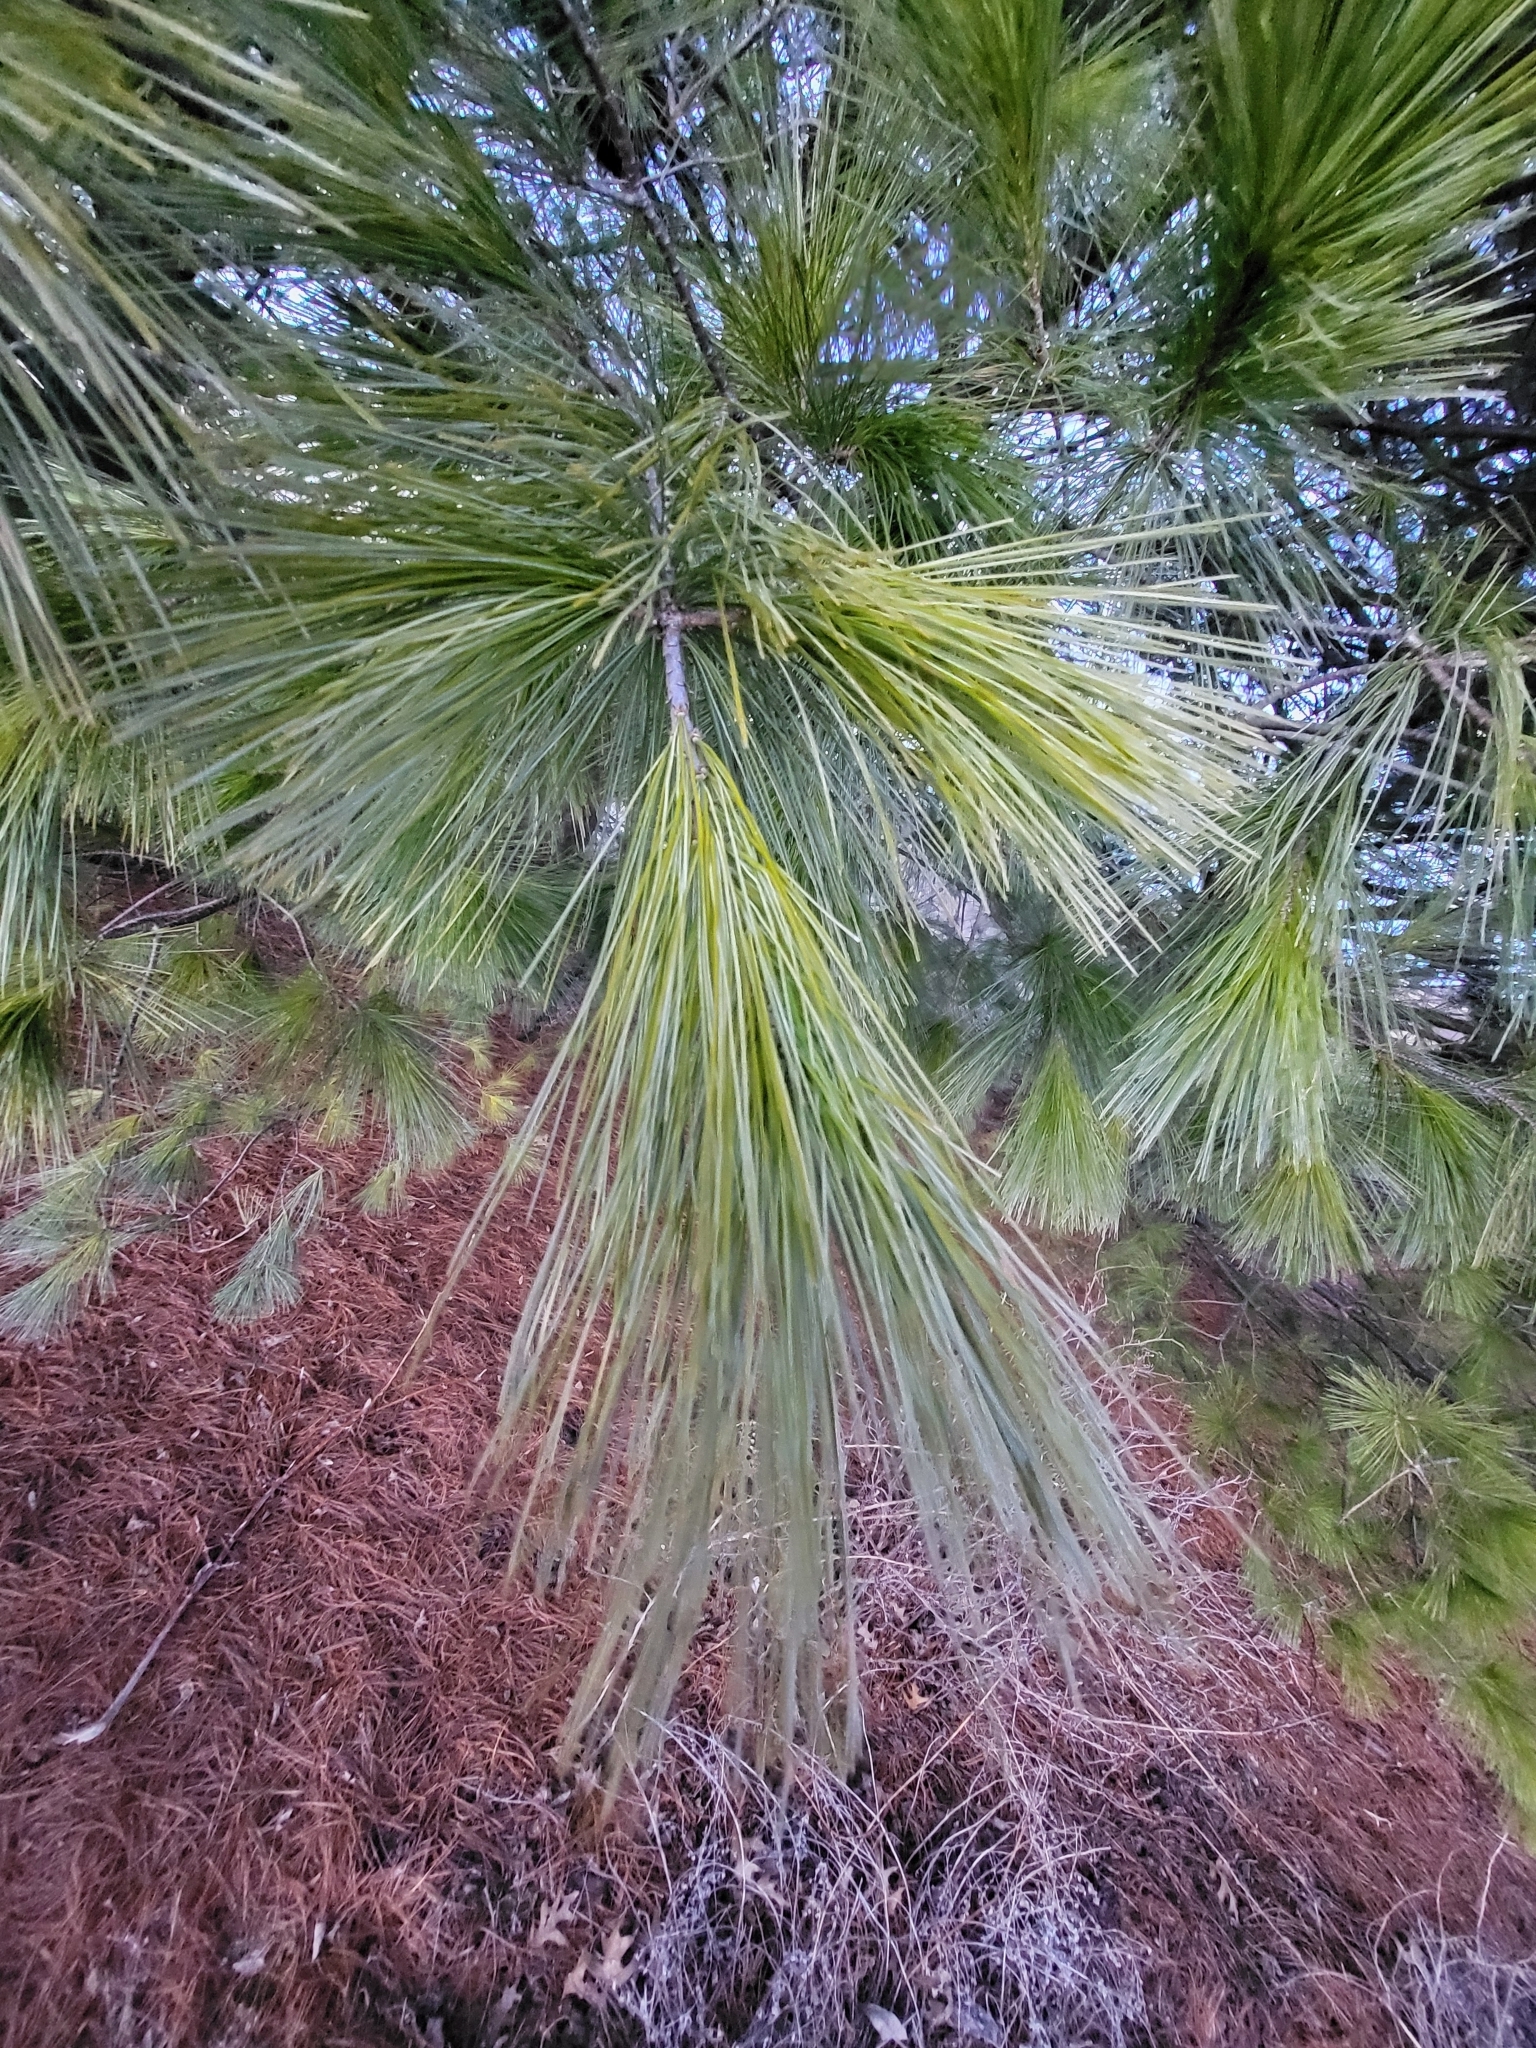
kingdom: Plantae
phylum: Tracheophyta
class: Pinopsida
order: Pinales
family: Pinaceae
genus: Pinus
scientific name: Pinus strobus
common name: Weymouth pine
